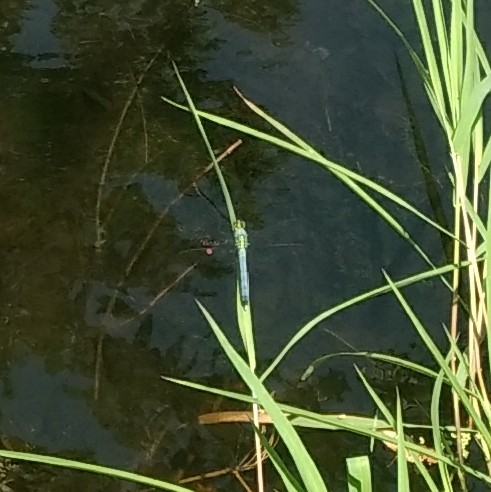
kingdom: Animalia
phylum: Arthropoda
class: Insecta
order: Odonata
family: Libellulidae
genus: Erythemis
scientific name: Erythemis simplicicollis
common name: Eastern pondhawk
